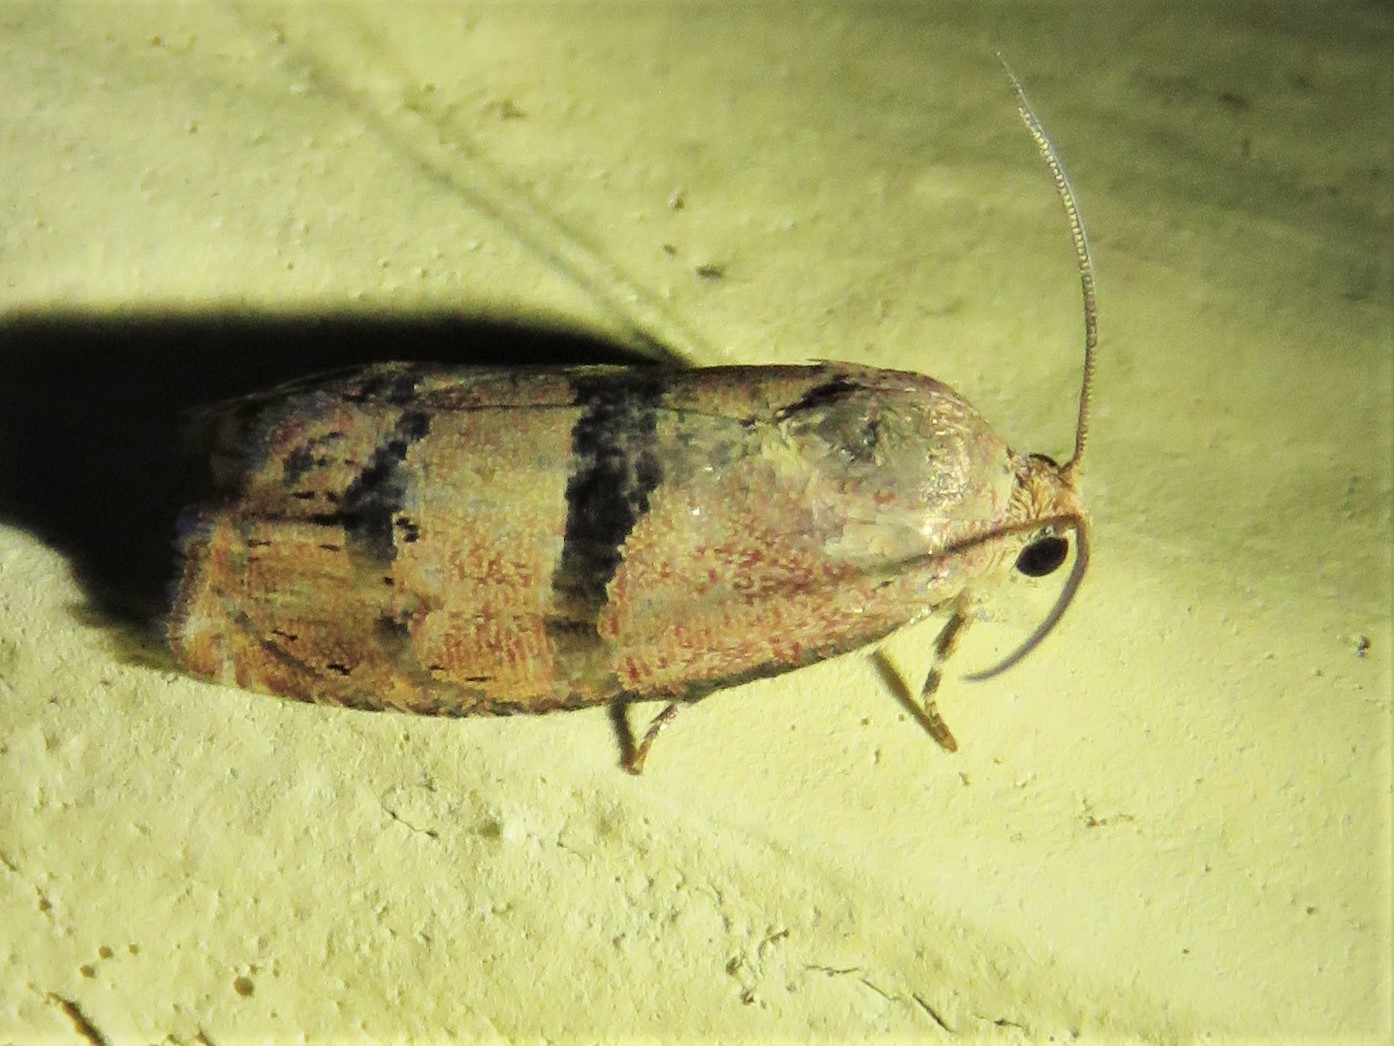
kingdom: Animalia
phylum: Arthropoda
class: Insecta
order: Lepidoptera
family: Tortricidae
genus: Cydia
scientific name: Cydia latiferreana
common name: Filbertworm moth
